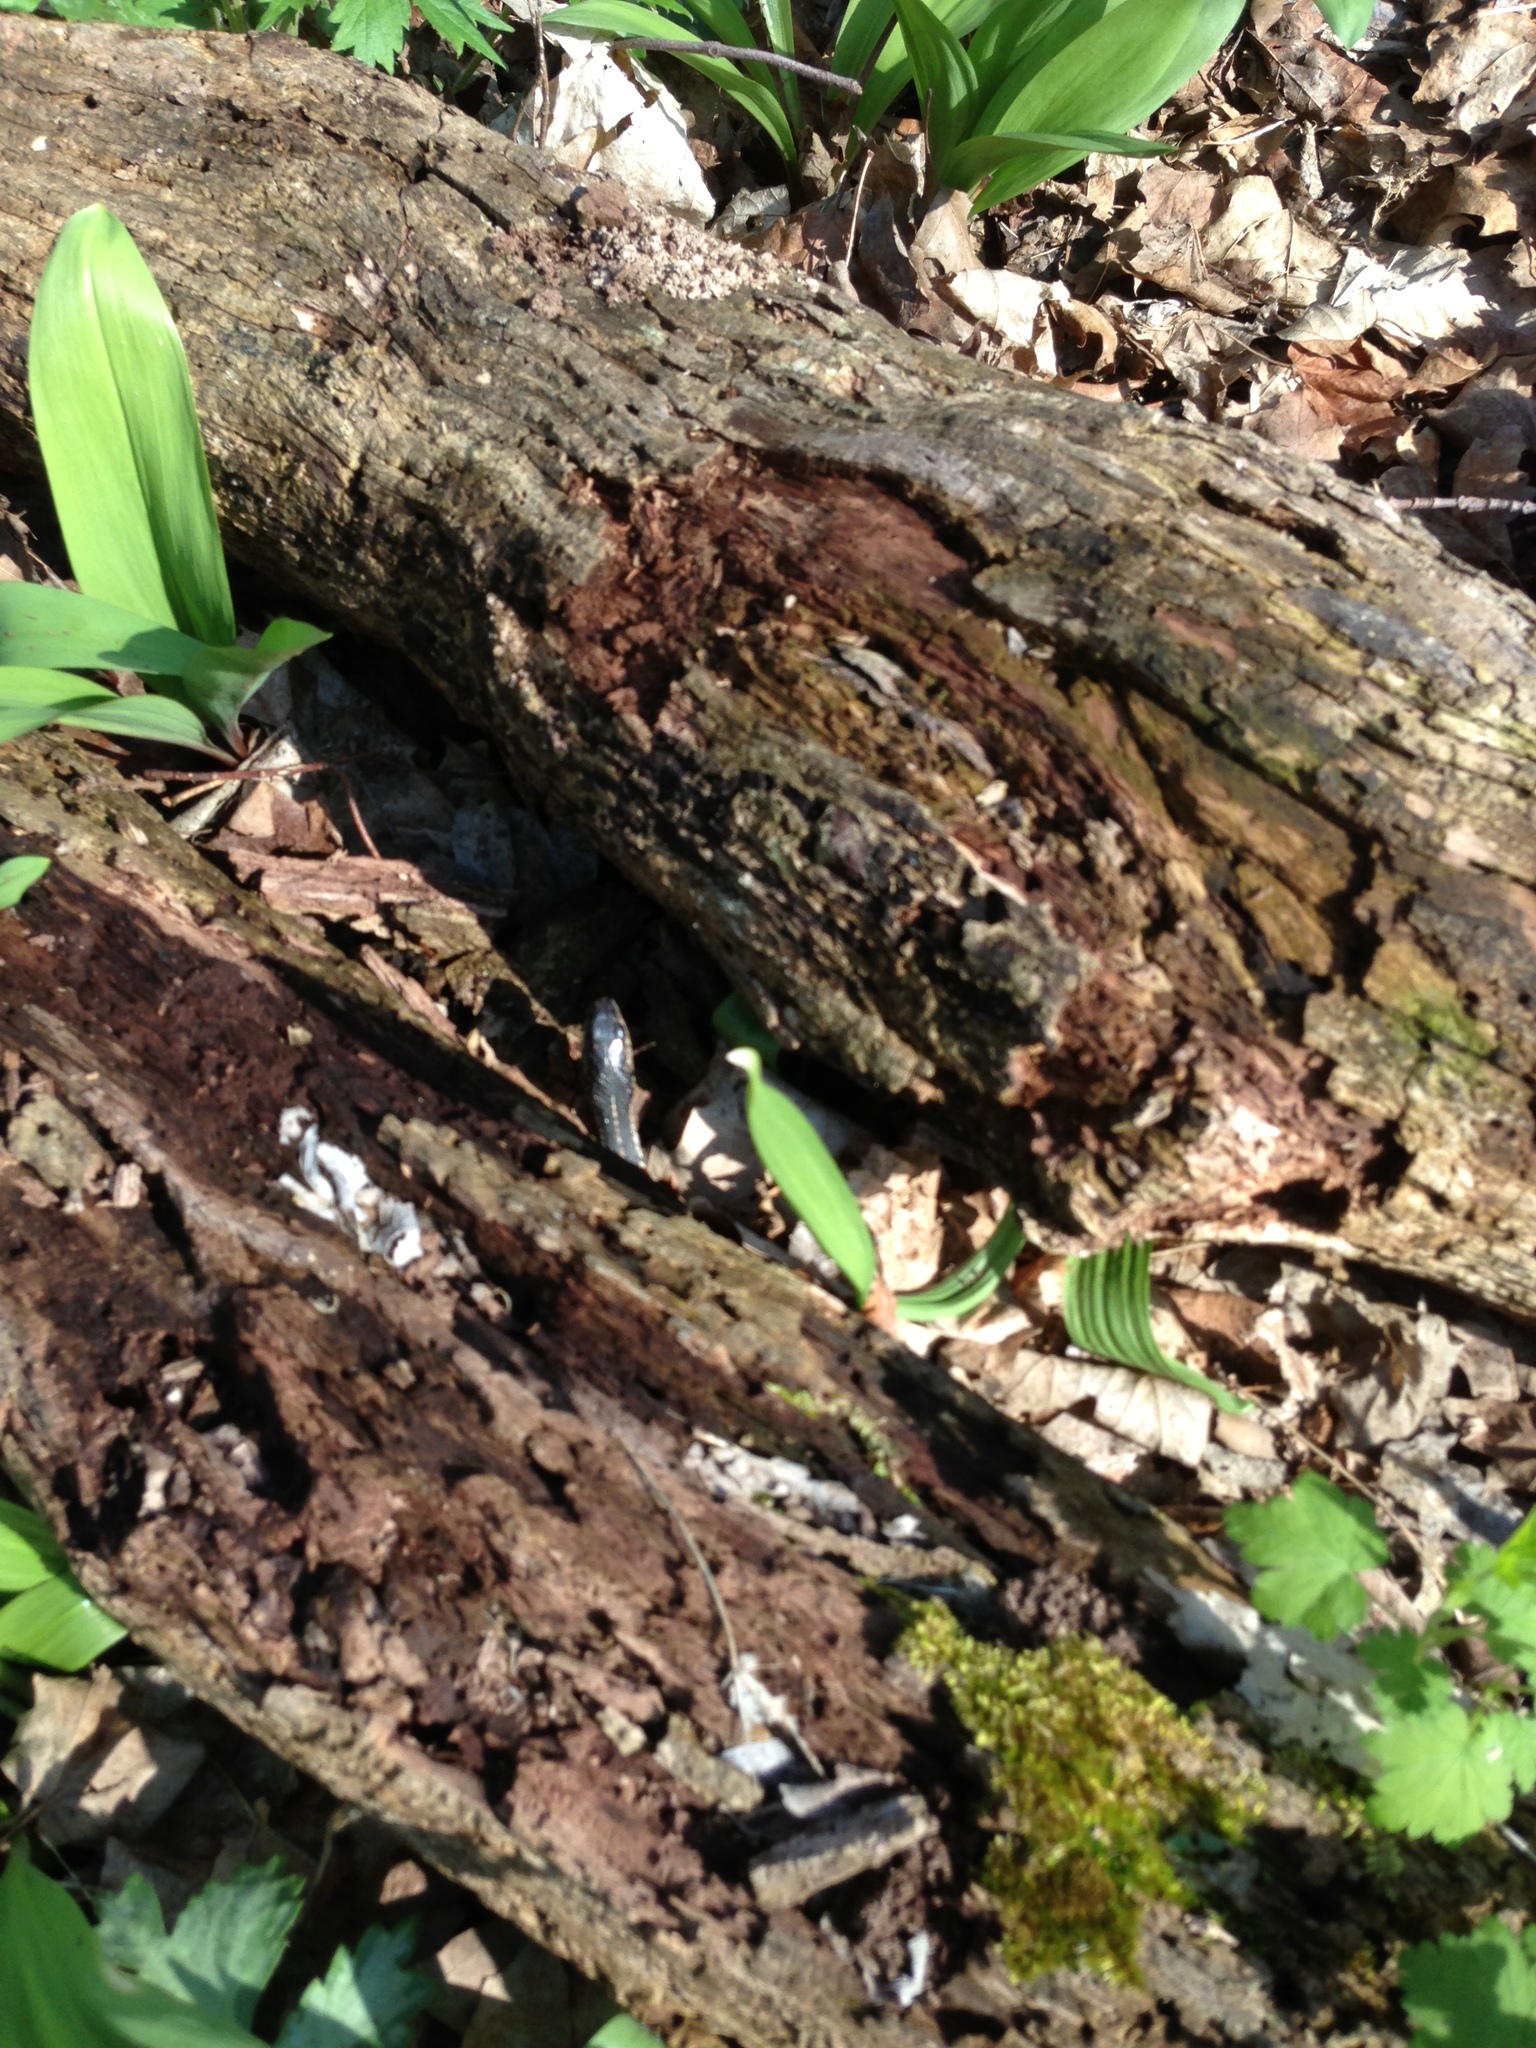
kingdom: Animalia
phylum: Chordata
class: Squamata
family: Colubridae
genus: Thamnophis
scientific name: Thamnophis sirtalis
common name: Common garter snake
